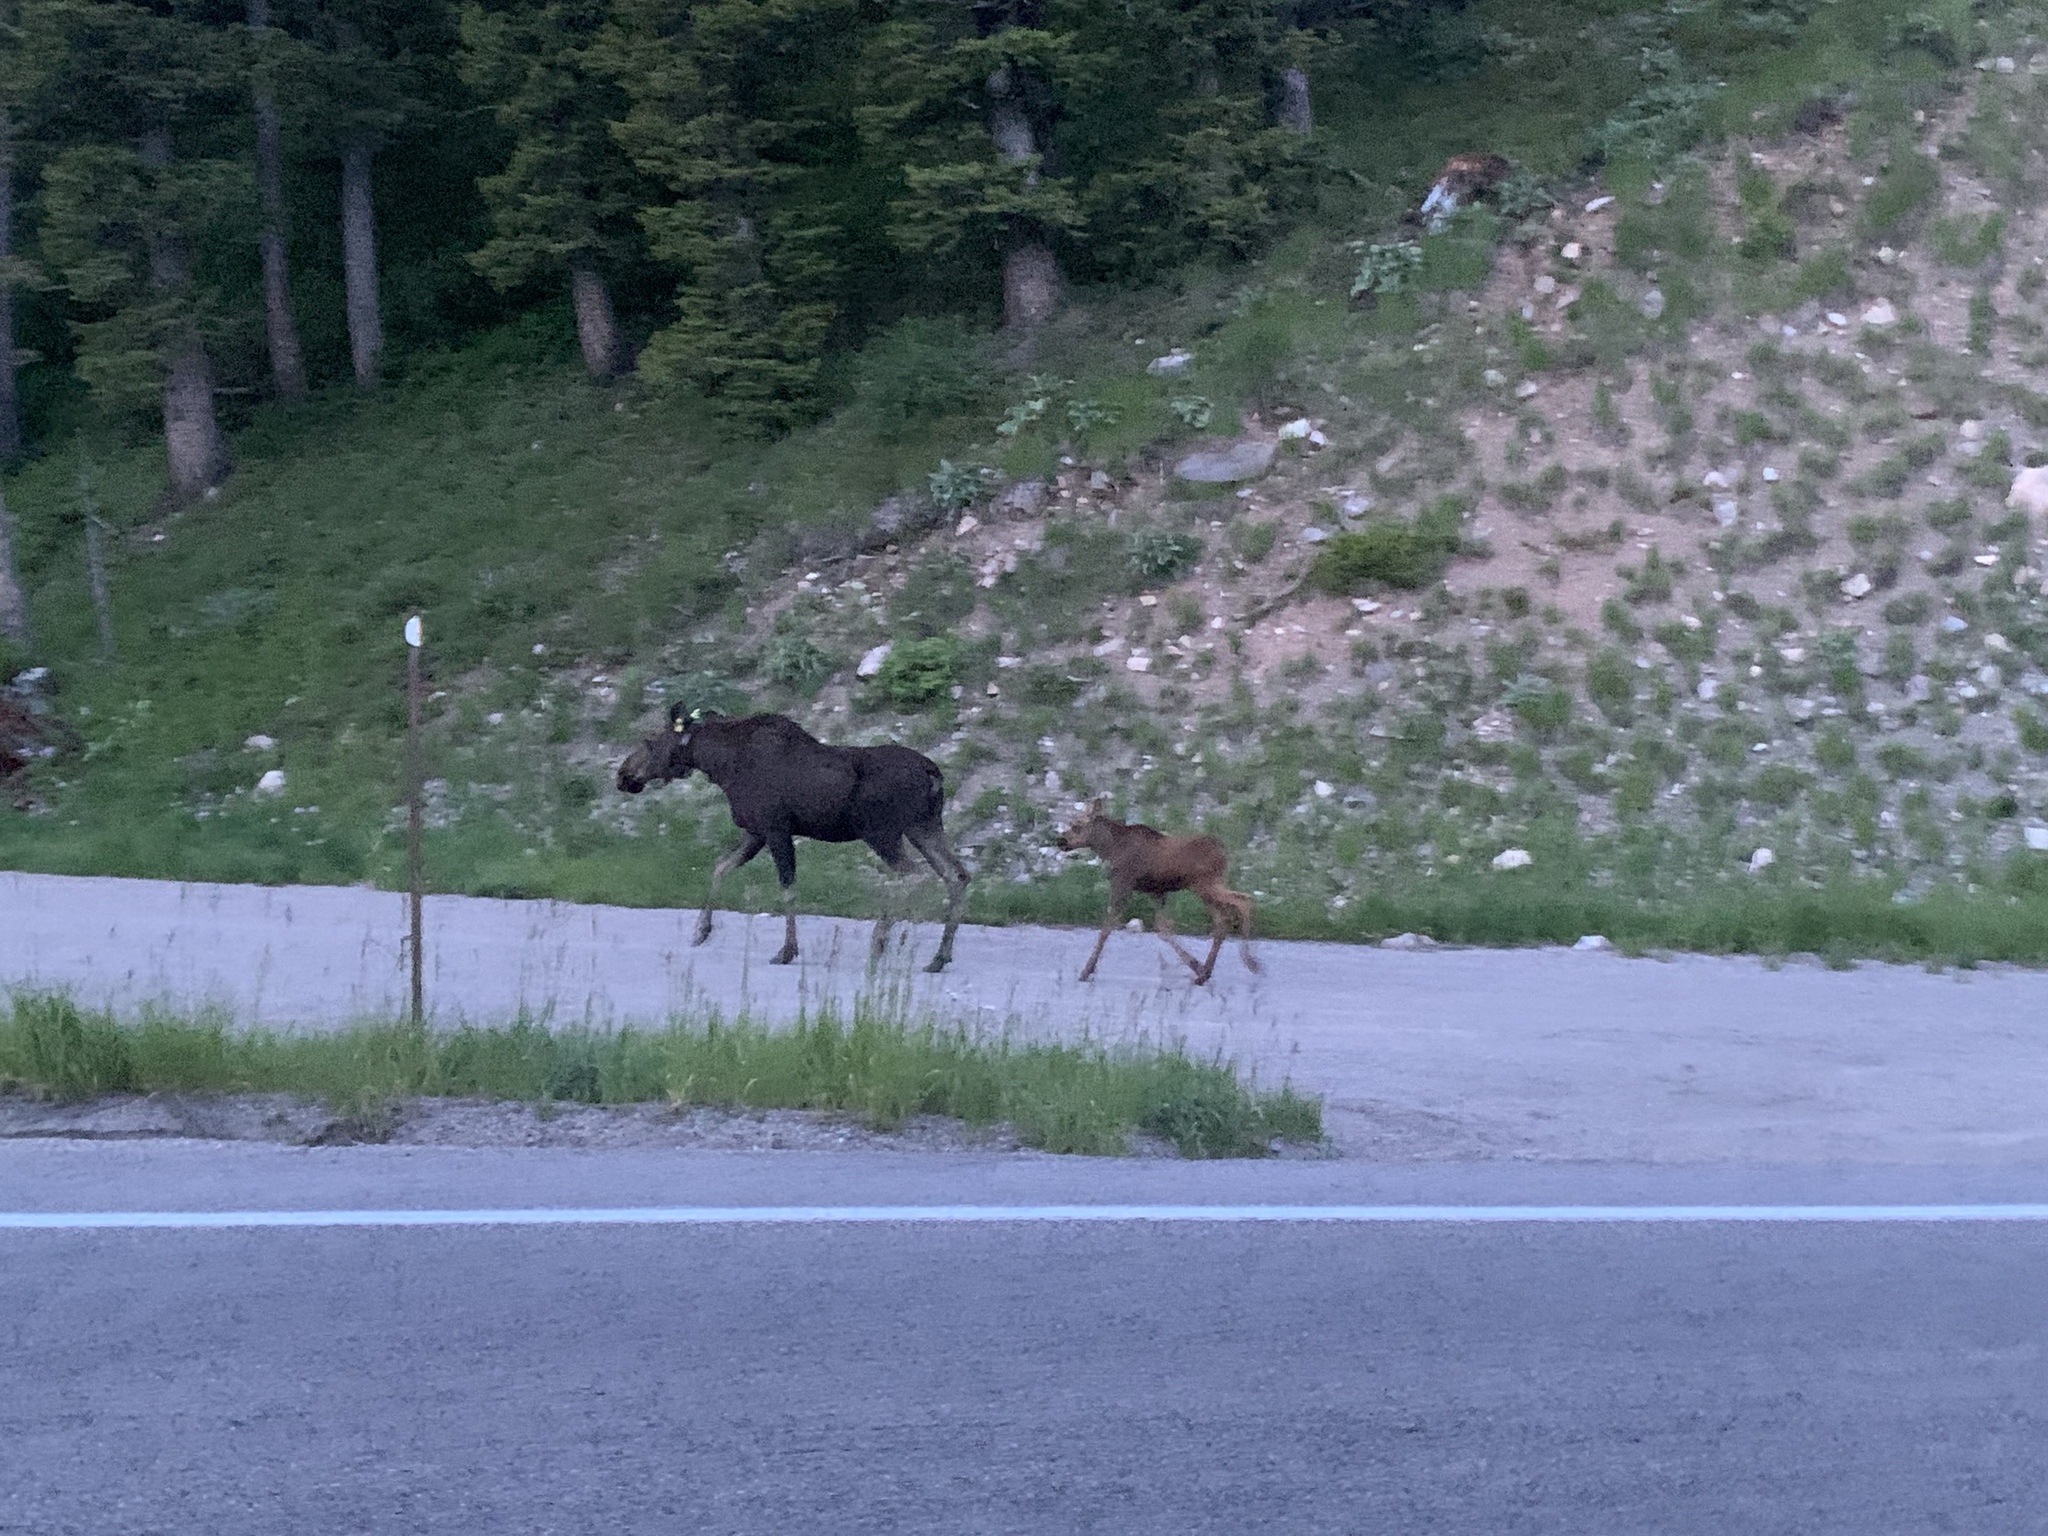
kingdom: Animalia
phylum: Chordata
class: Mammalia
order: Artiodactyla
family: Cervidae
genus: Alces
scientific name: Alces alces
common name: Moose
